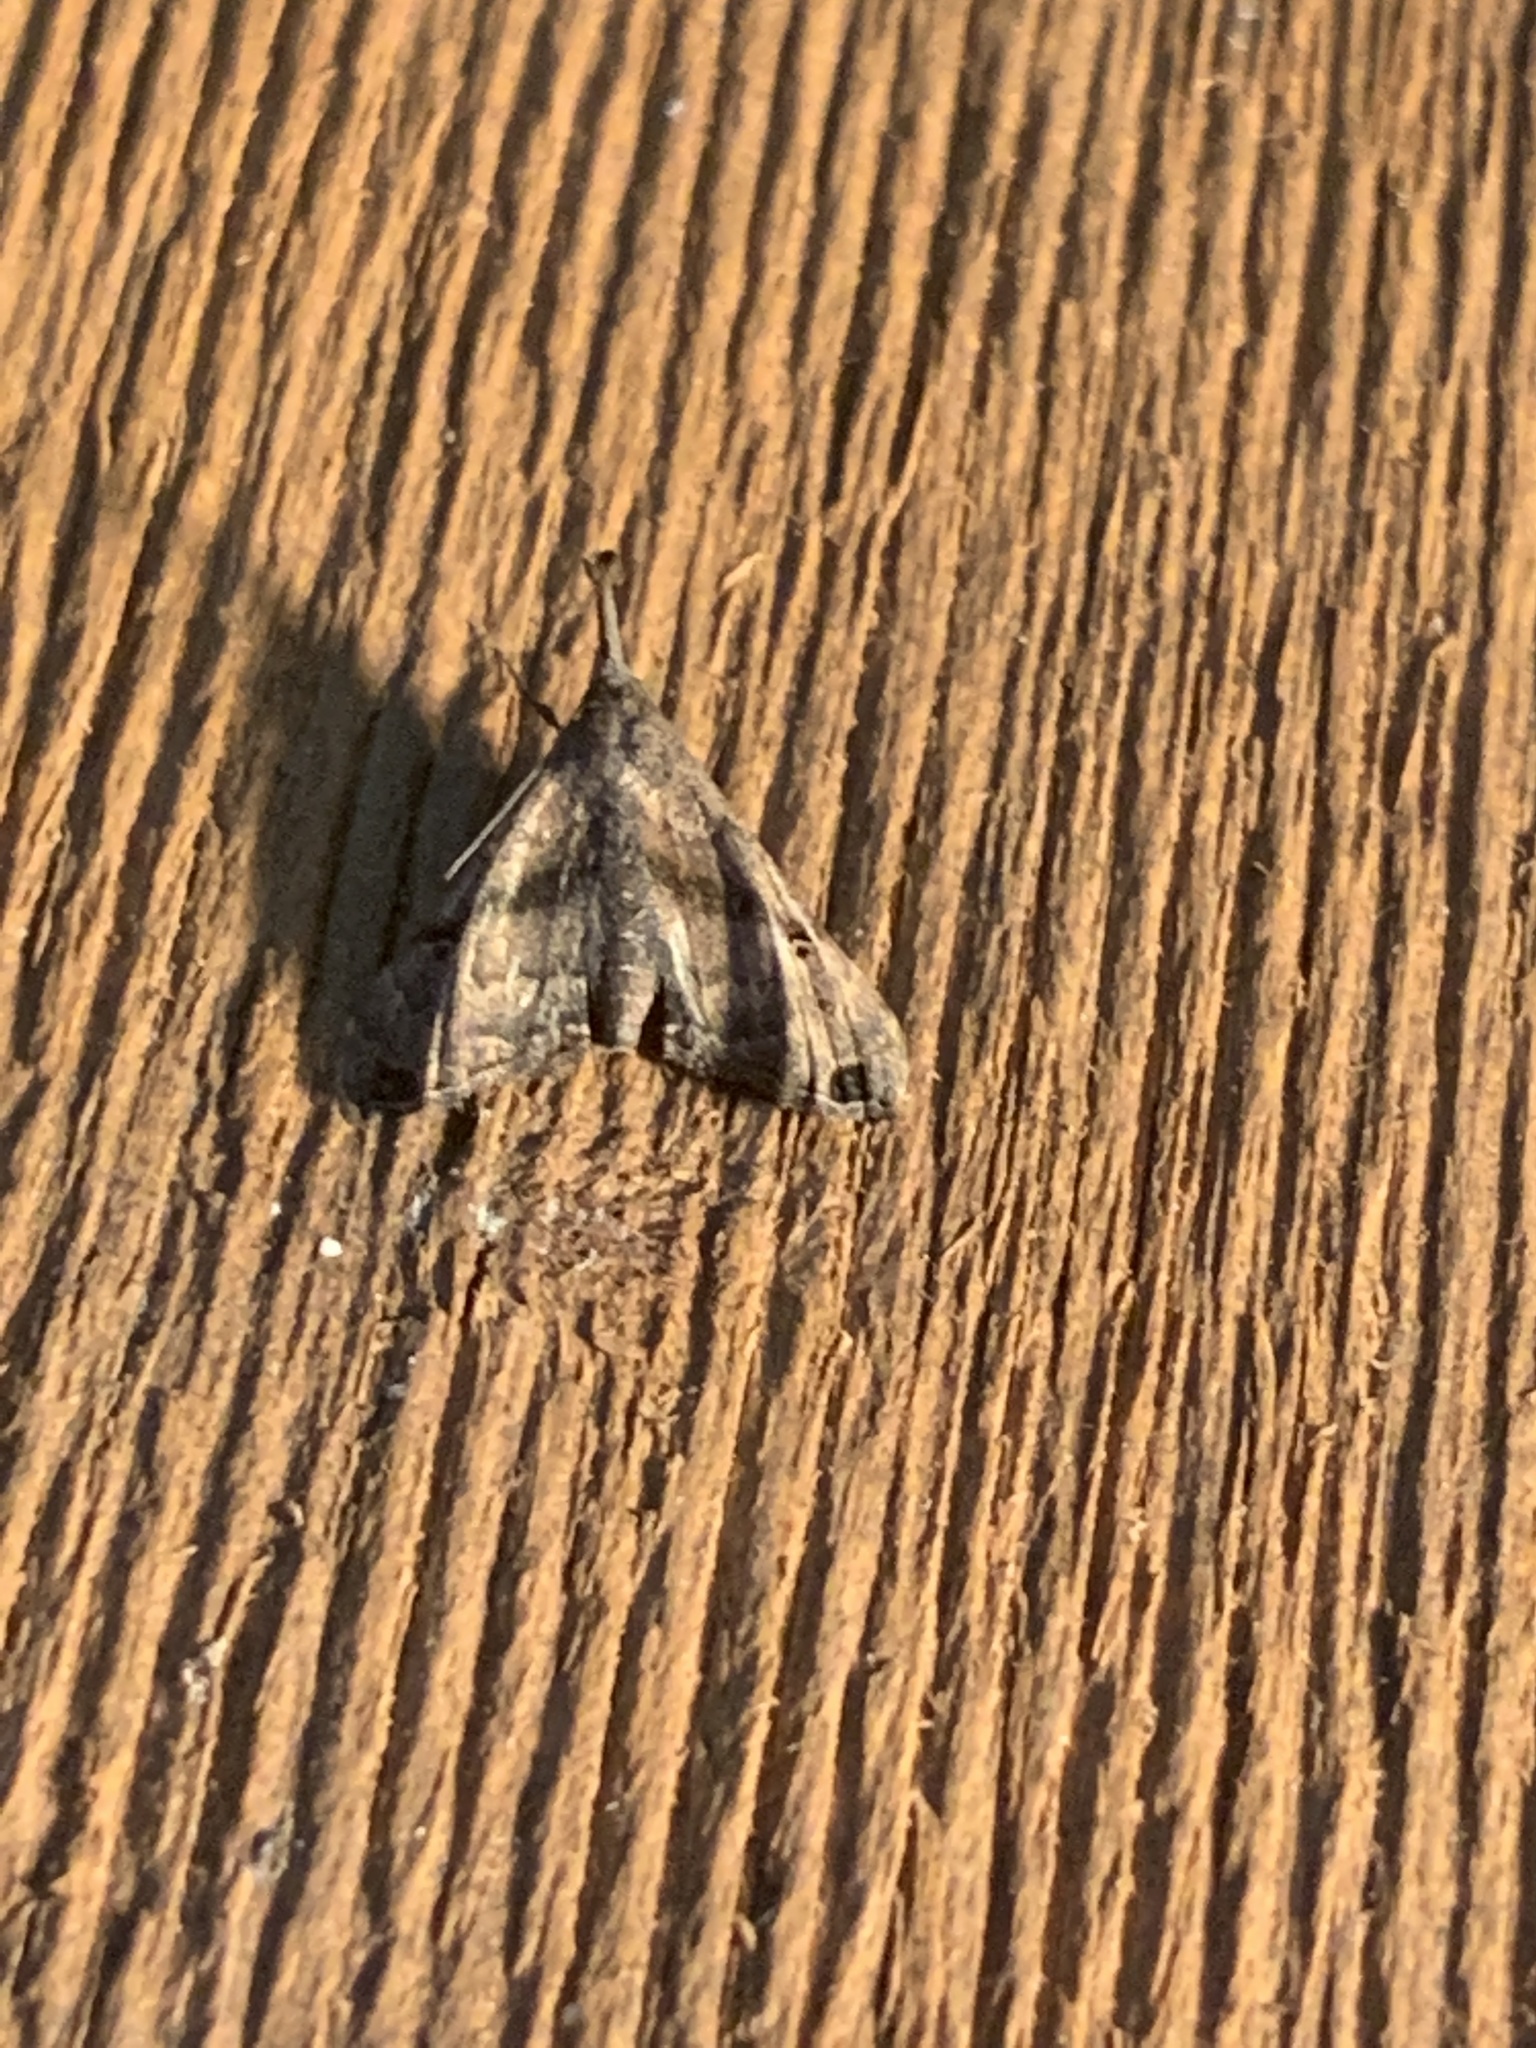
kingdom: Animalia
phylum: Arthropoda
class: Insecta
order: Lepidoptera
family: Erebidae
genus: Palthis
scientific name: Palthis asopialis
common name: Faint-spotted palthis moth
